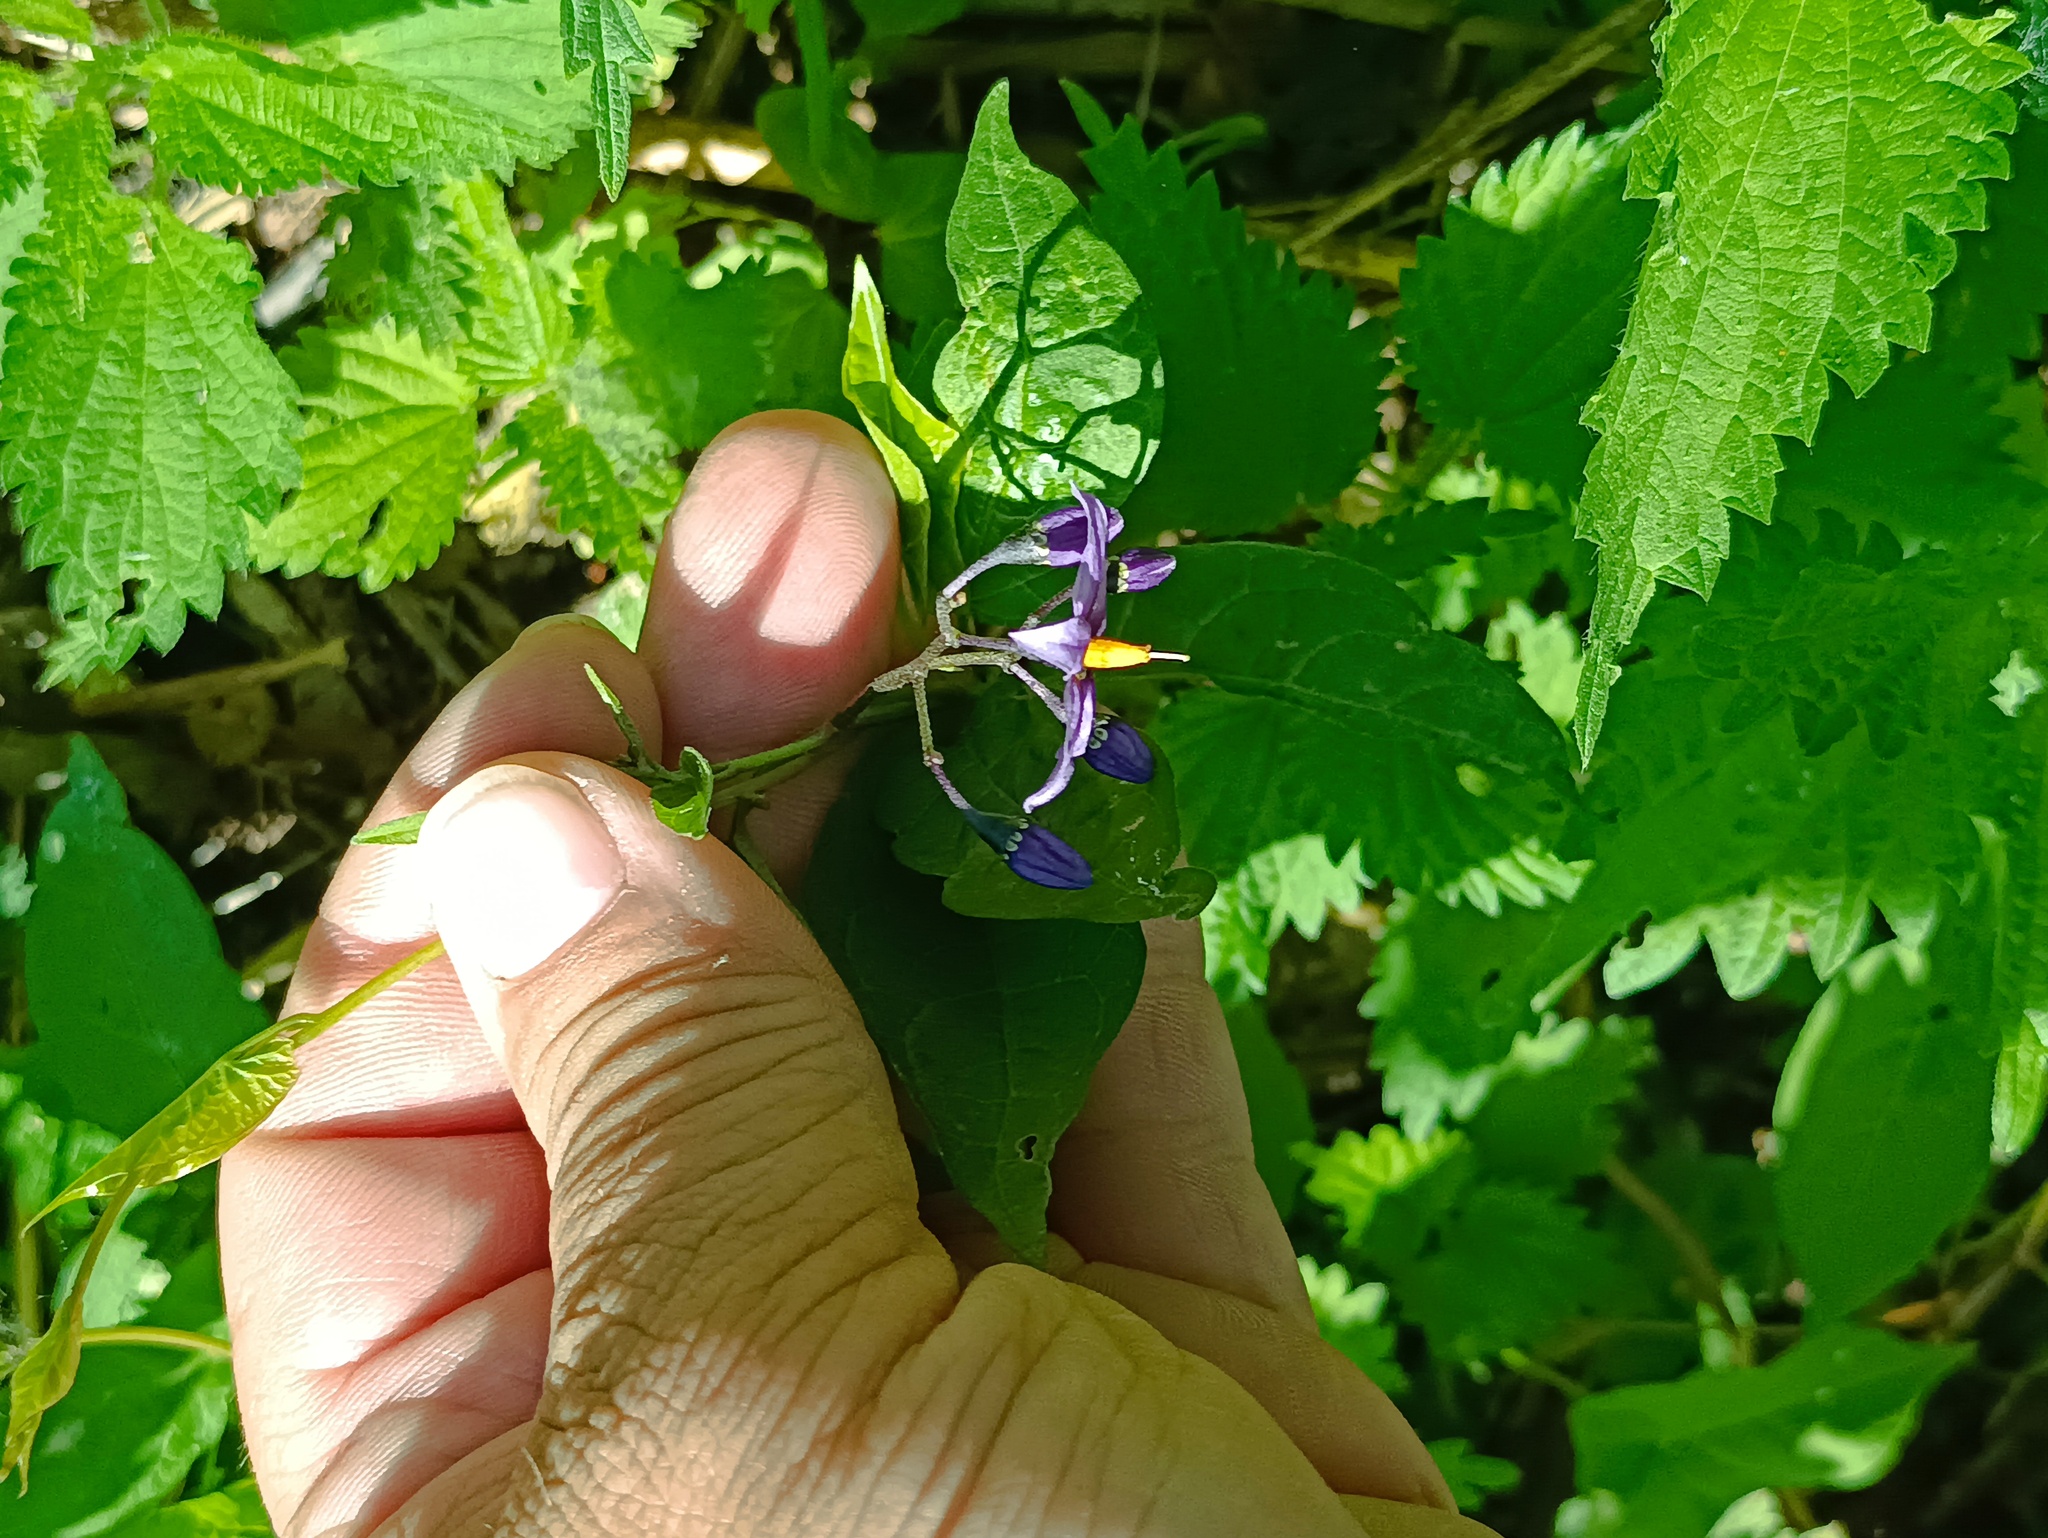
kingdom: Plantae
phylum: Tracheophyta
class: Magnoliopsida
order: Solanales
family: Solanaceae
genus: Solanum
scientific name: Solanum dulcamara
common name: Climbing nightshade
